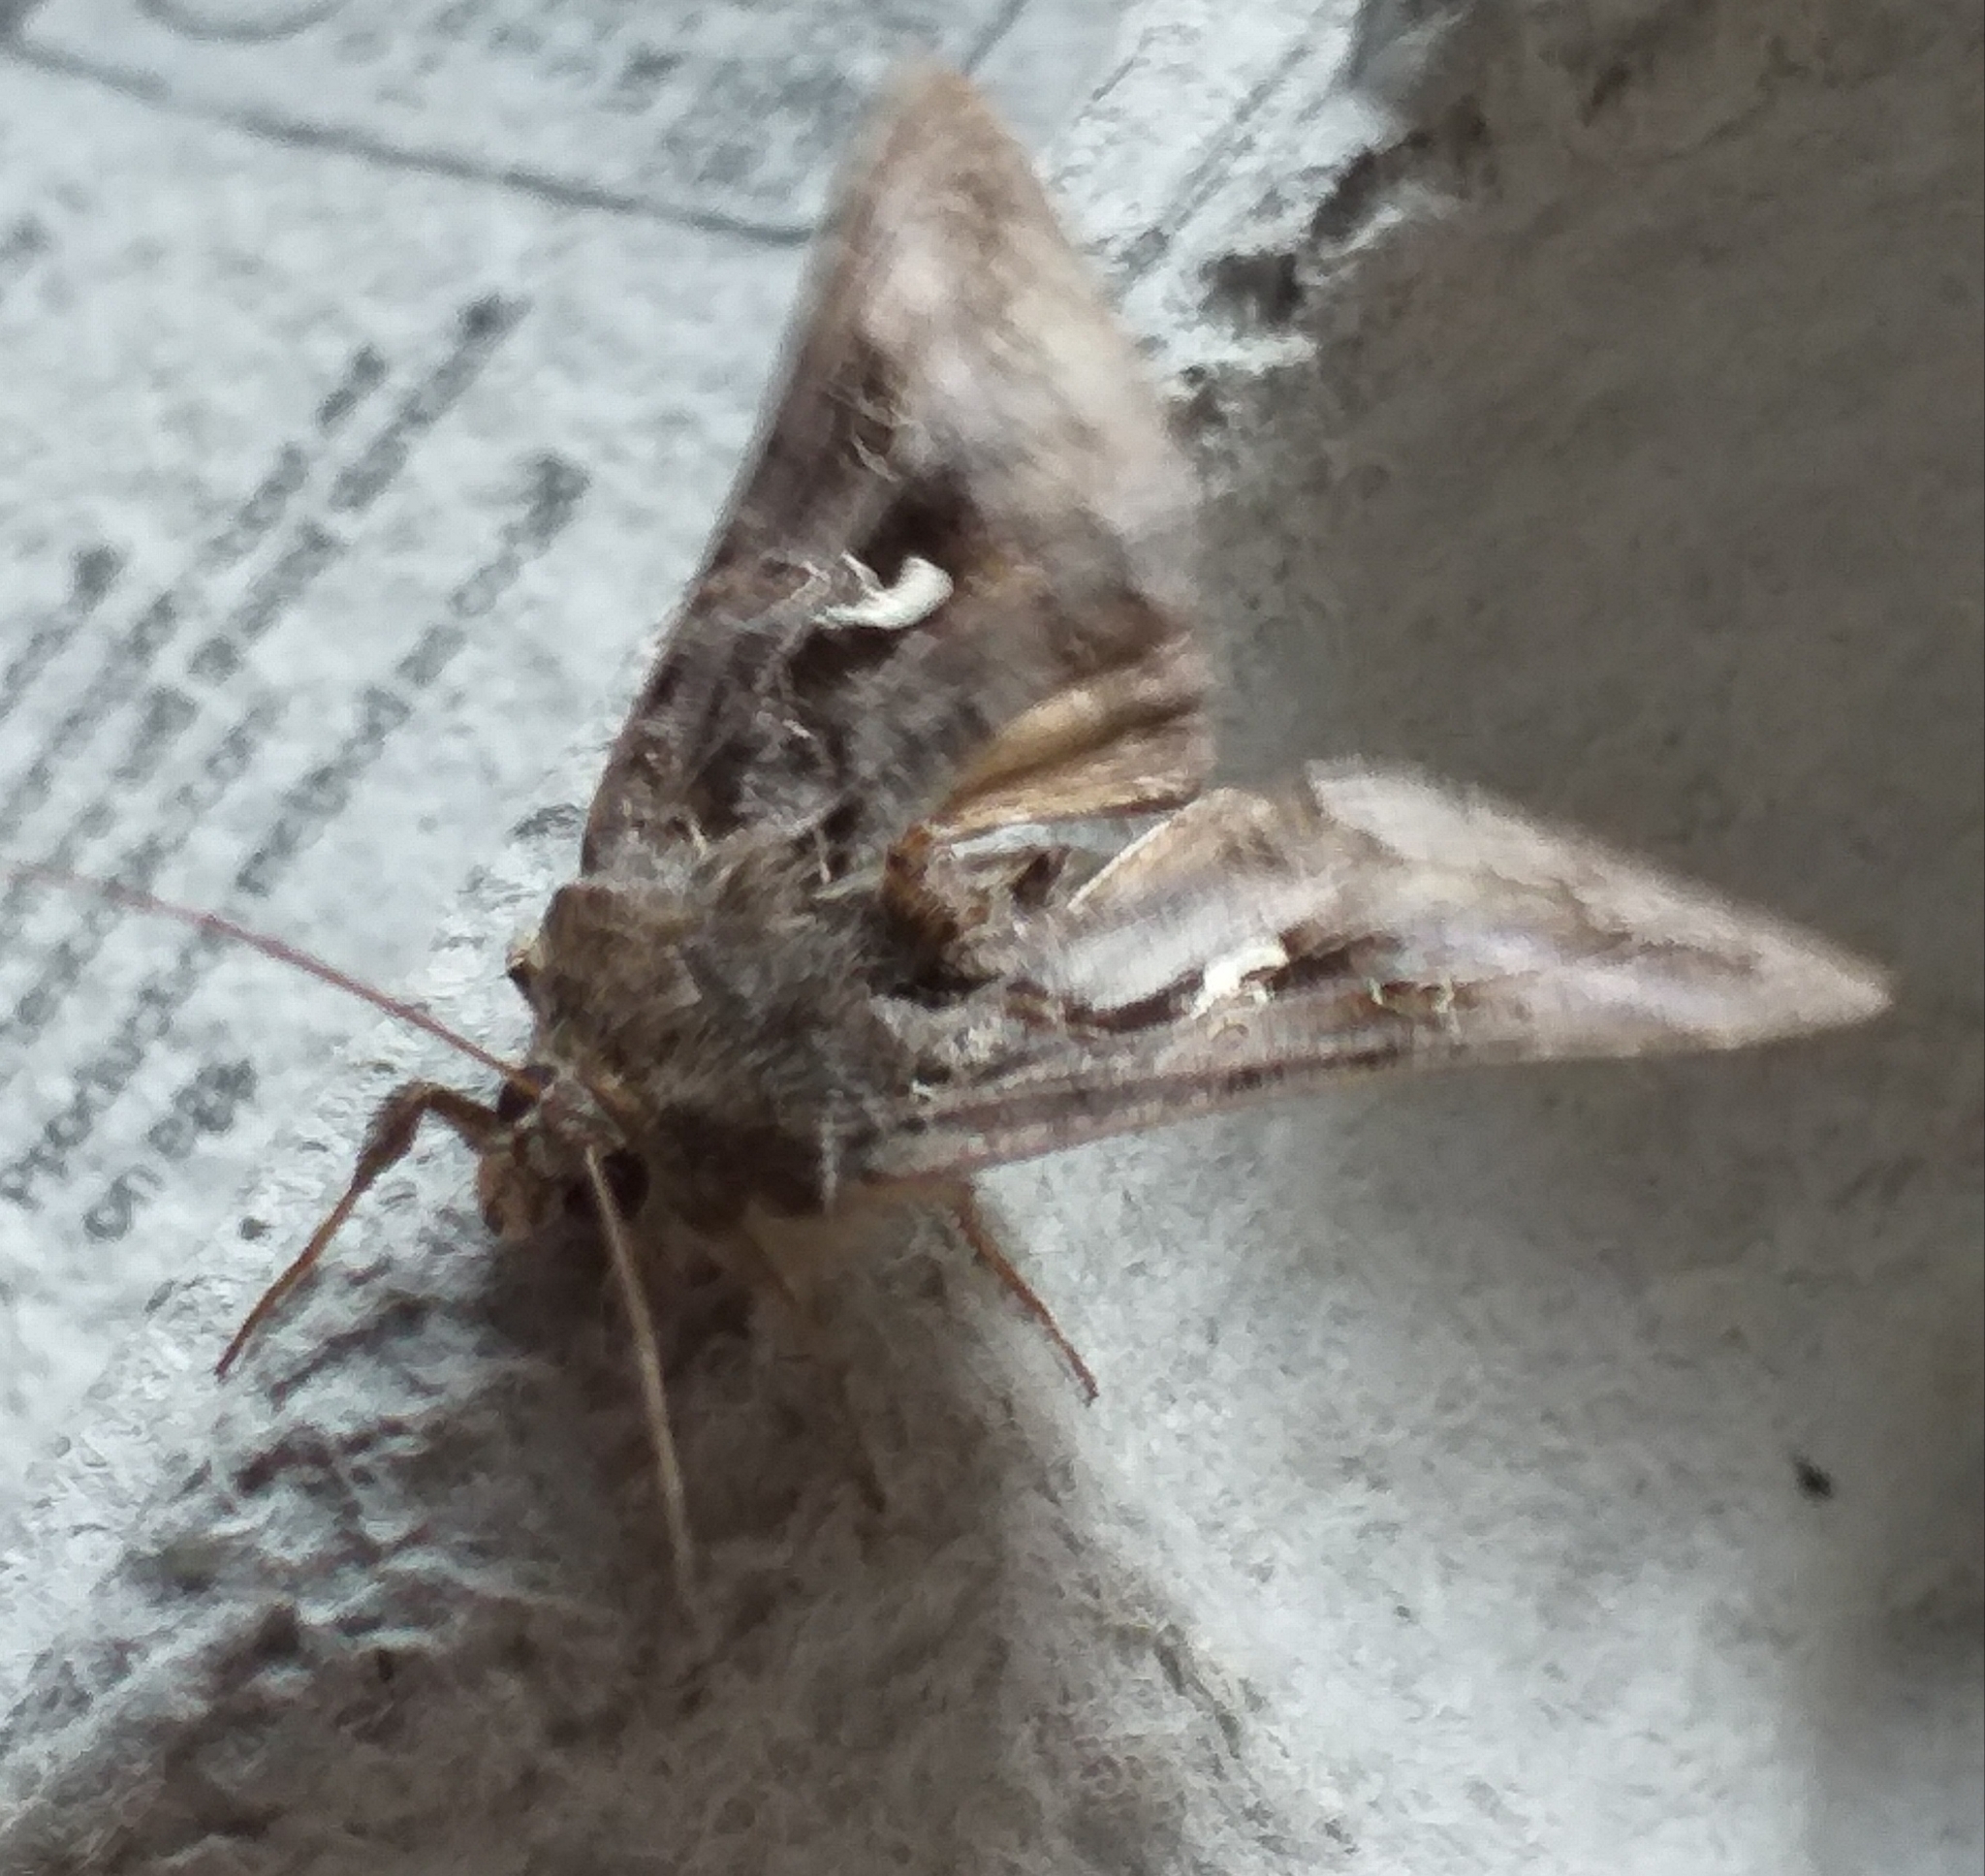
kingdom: Animalia
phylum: Arthropoda
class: Insecta
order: Lepidoptera
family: Noctuidae
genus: Autographa
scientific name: Autographa gamma
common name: Silver y
